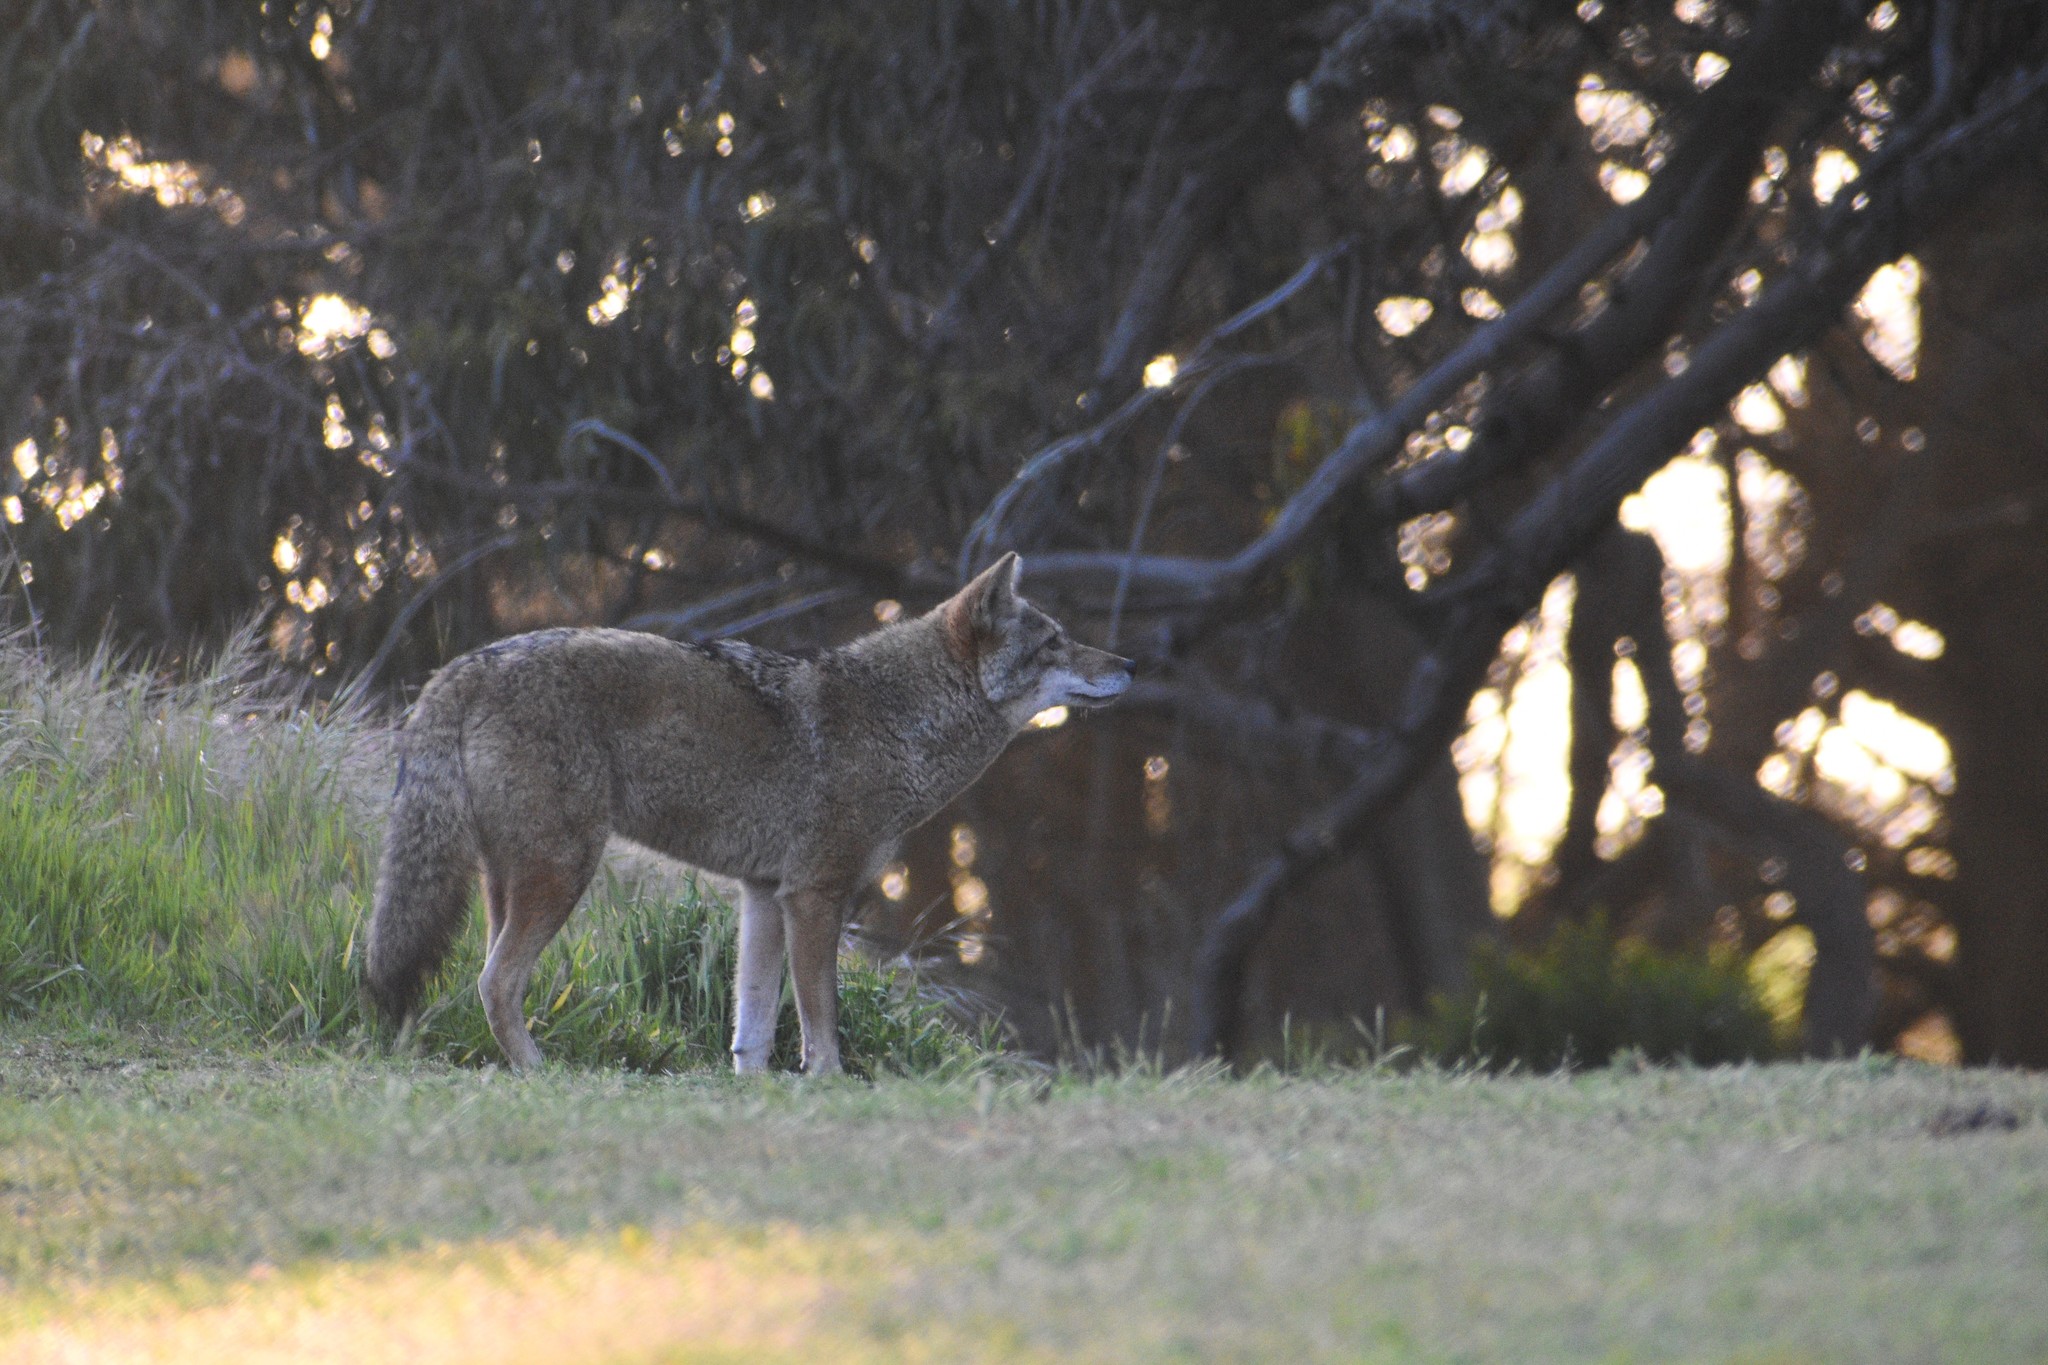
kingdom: Animalia
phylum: Chordata
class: Mammalia
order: Carnivora
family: Canidae
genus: Canis
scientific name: Canis latrans
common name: Coyote
